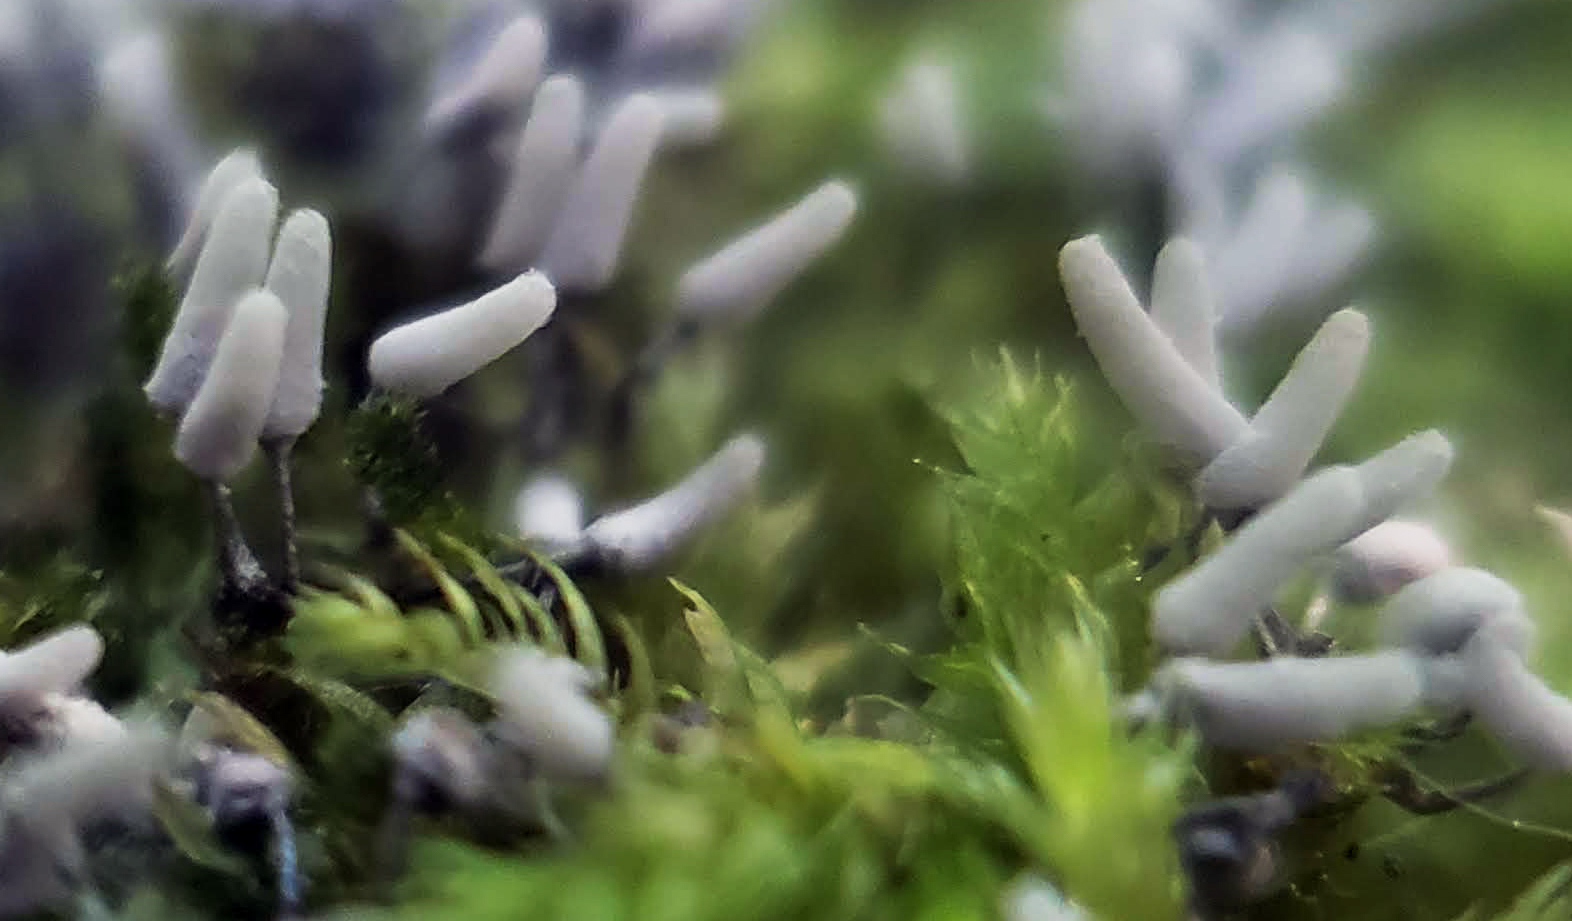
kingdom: Protozoa
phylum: Mycetozoa
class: Myxomycetes
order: Trichiales
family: Arcyriaceae
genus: Arcyria
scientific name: Arcyria cinerea
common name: White carnival candy slime mold
